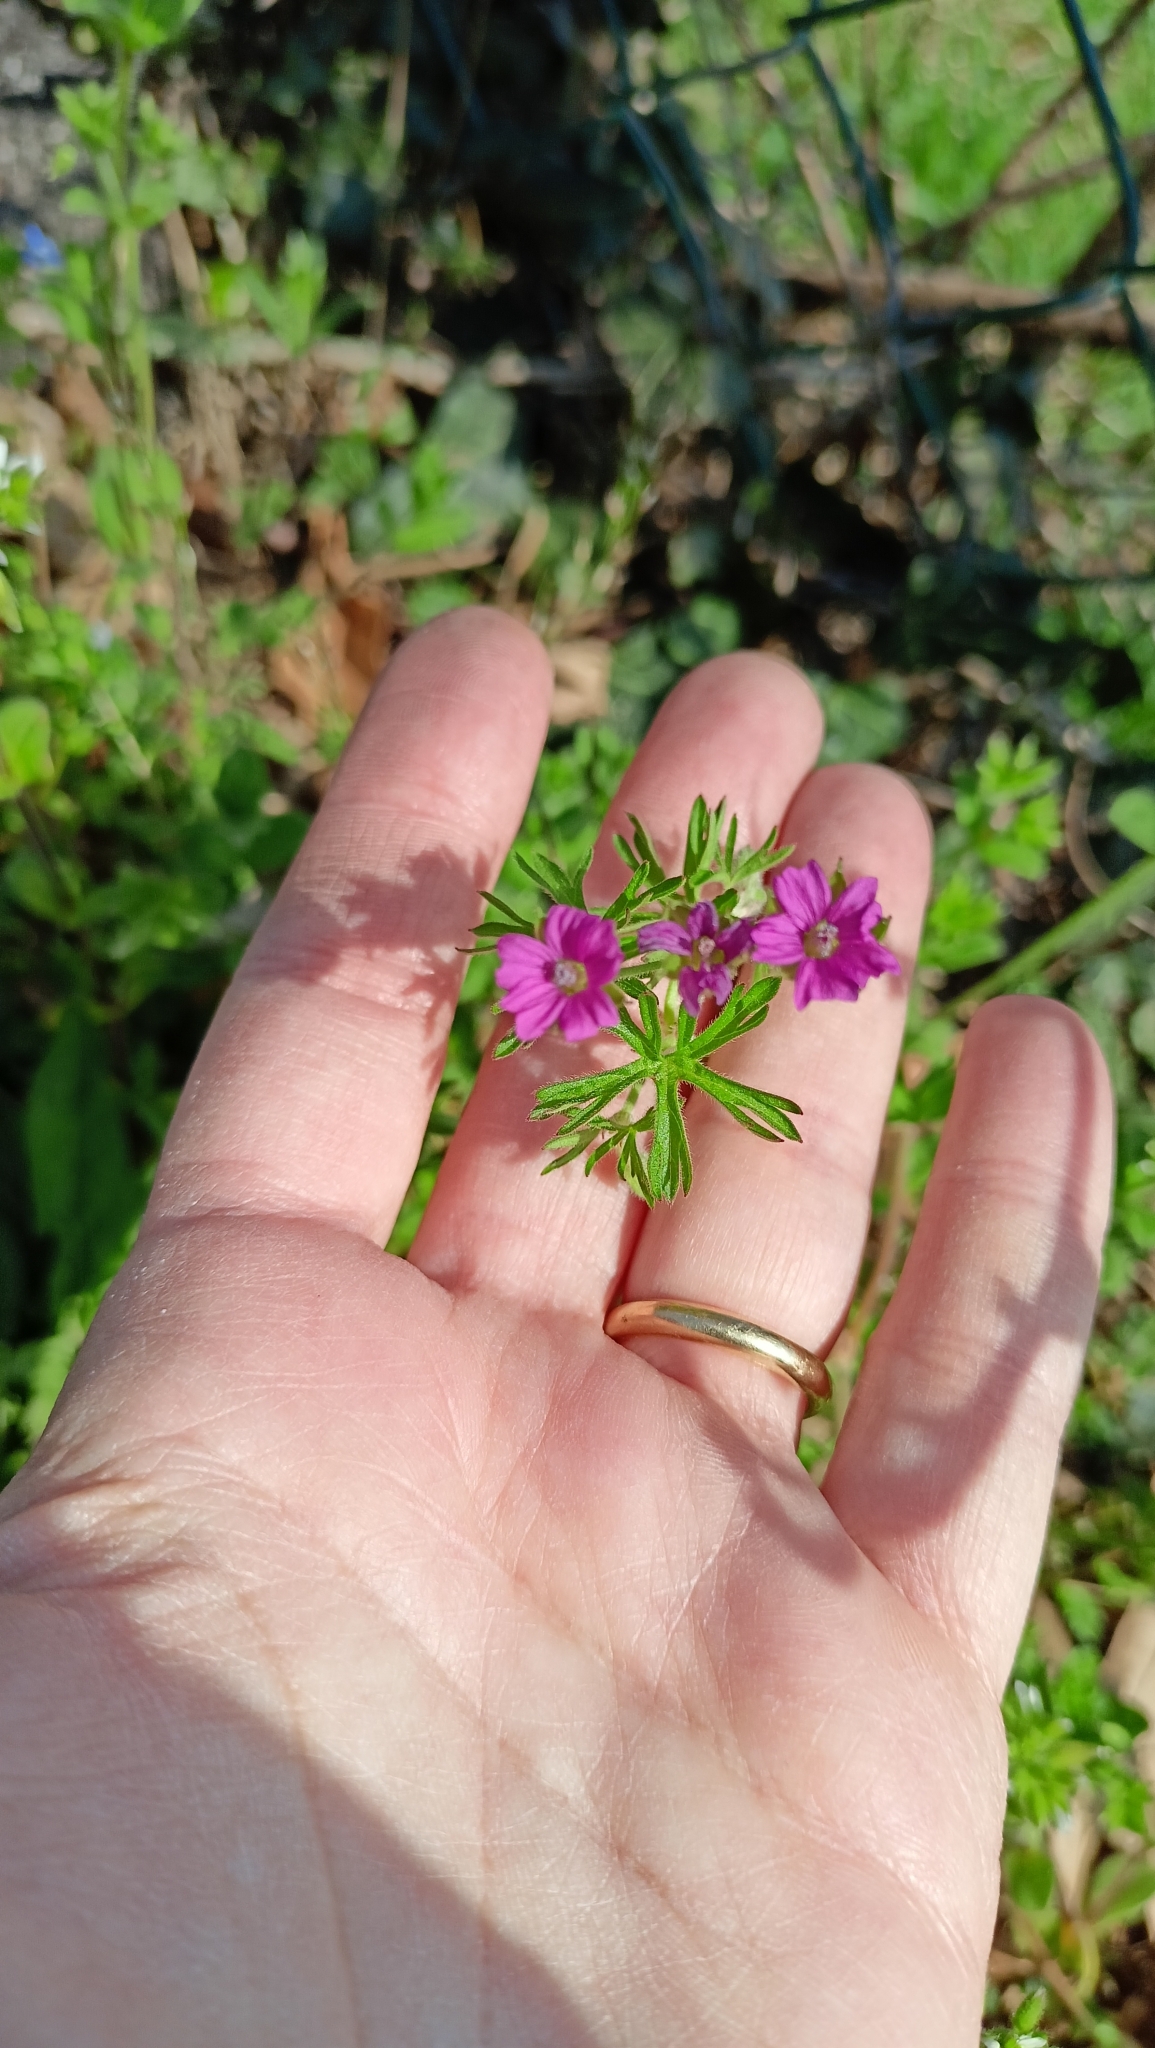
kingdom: Plantae
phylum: Tracheophyta
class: Magnoliopsida
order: Geraniales
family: Geraniaceae
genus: Geranium
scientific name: Geranium dissectum
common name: Cut-leaved crane's-bill
